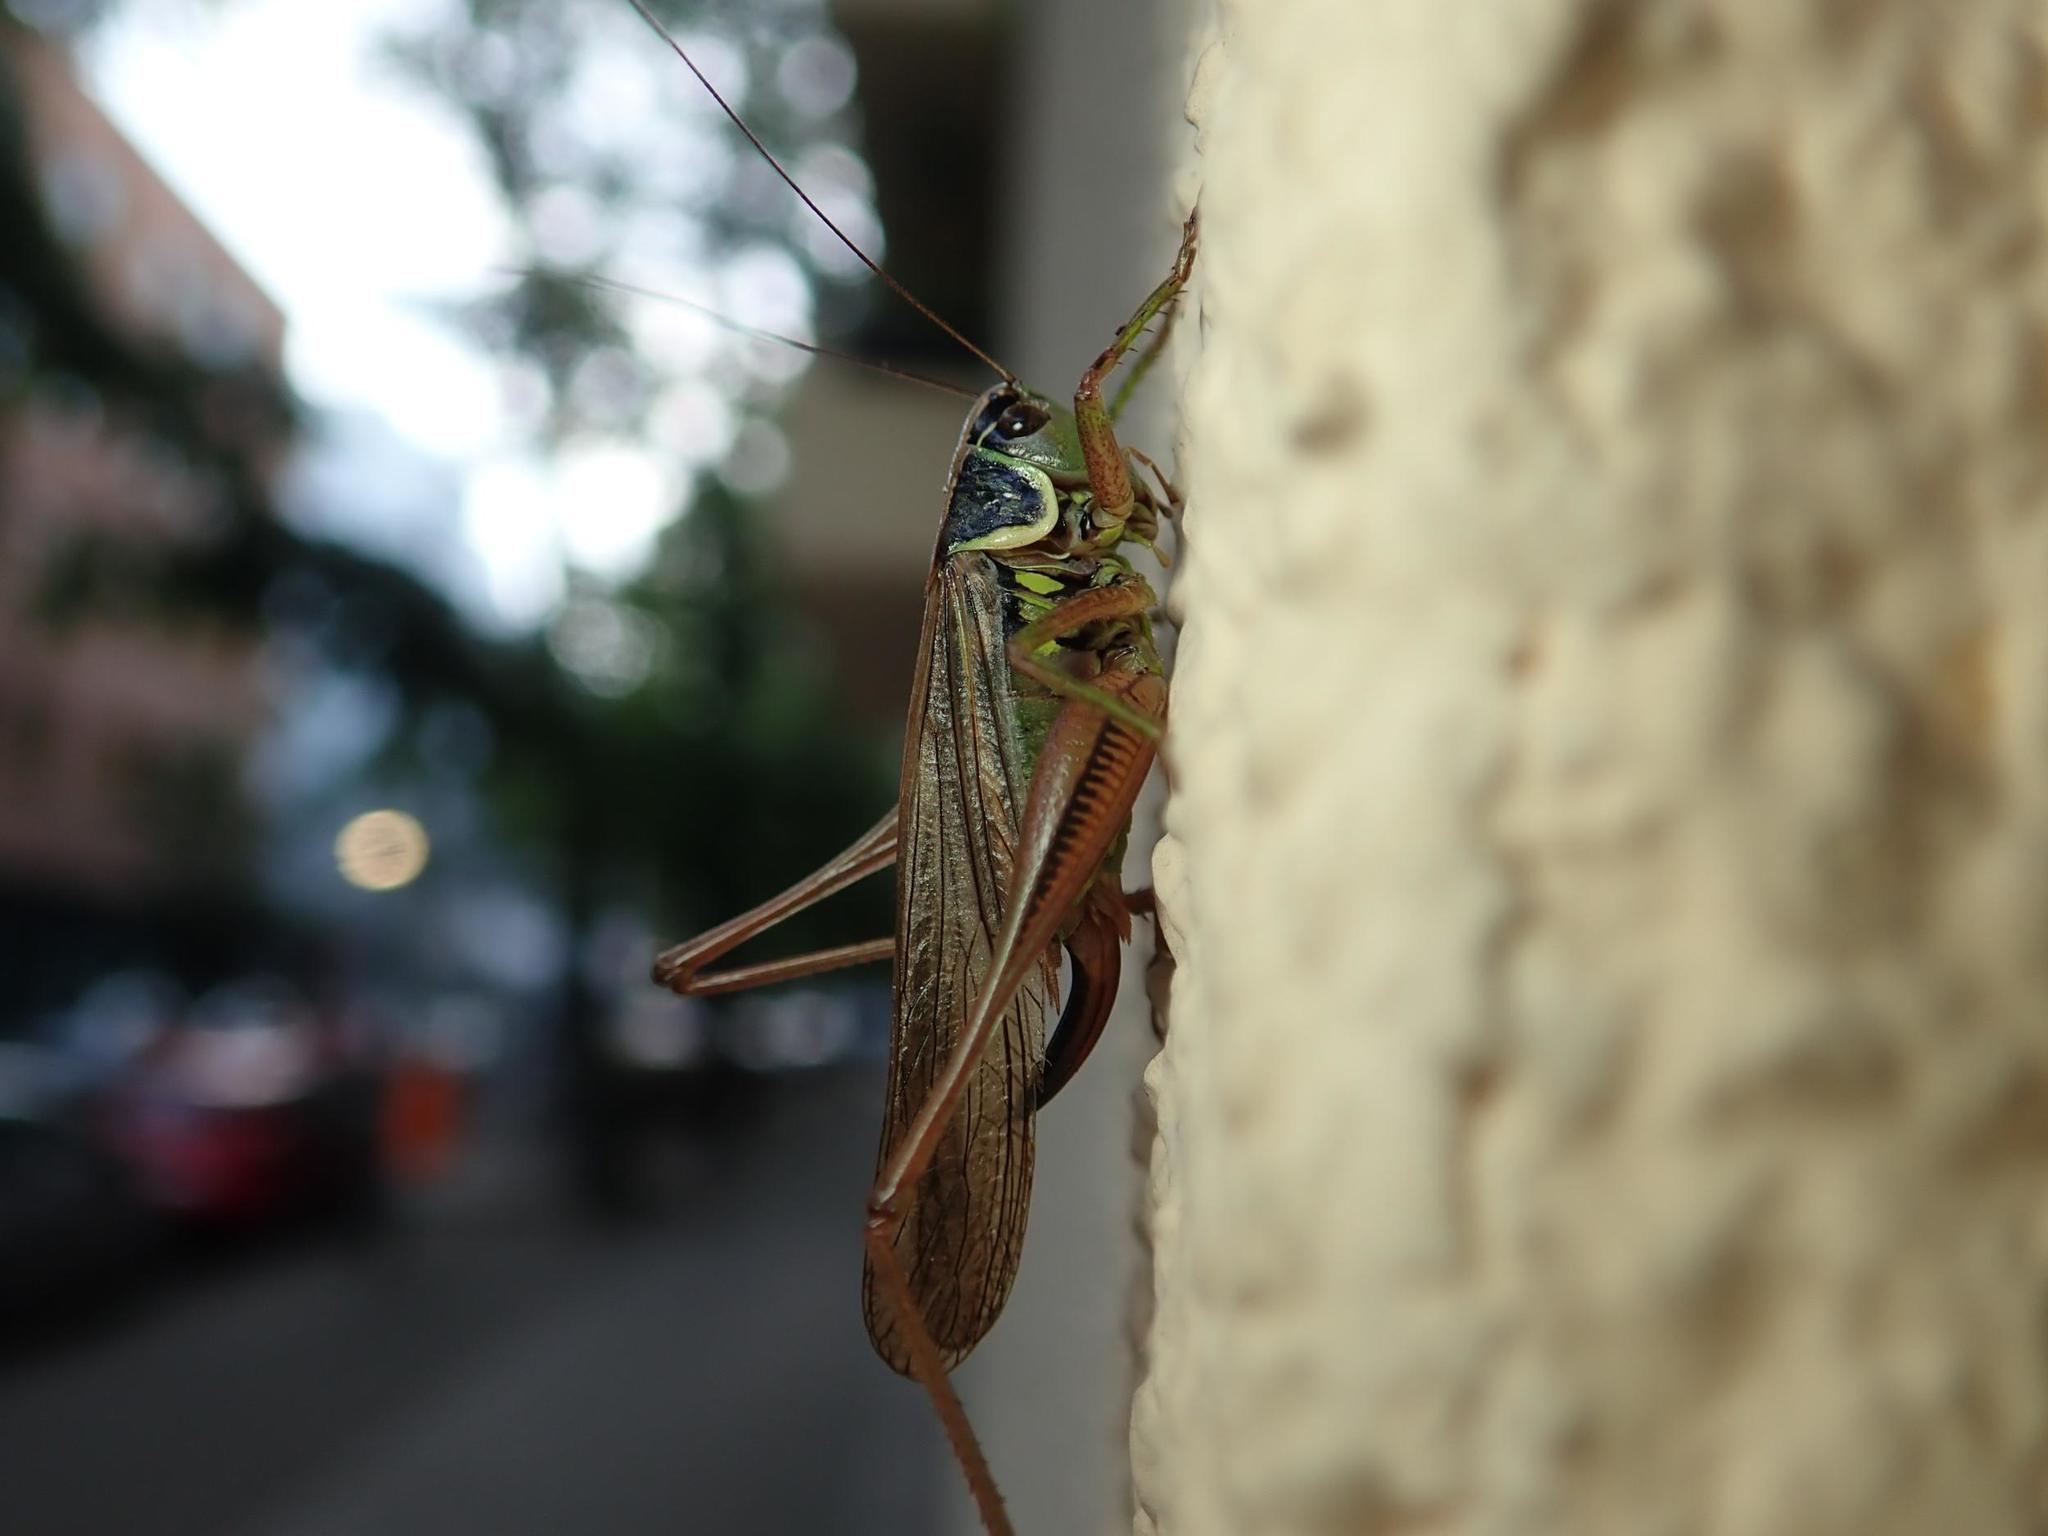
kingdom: Animalia
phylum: Arthropoda
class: Insecta
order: Orthoptera
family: Tettigoniidae
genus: Roeseliana
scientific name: Roeseliana roeselii
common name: Roesel's bush cricket
